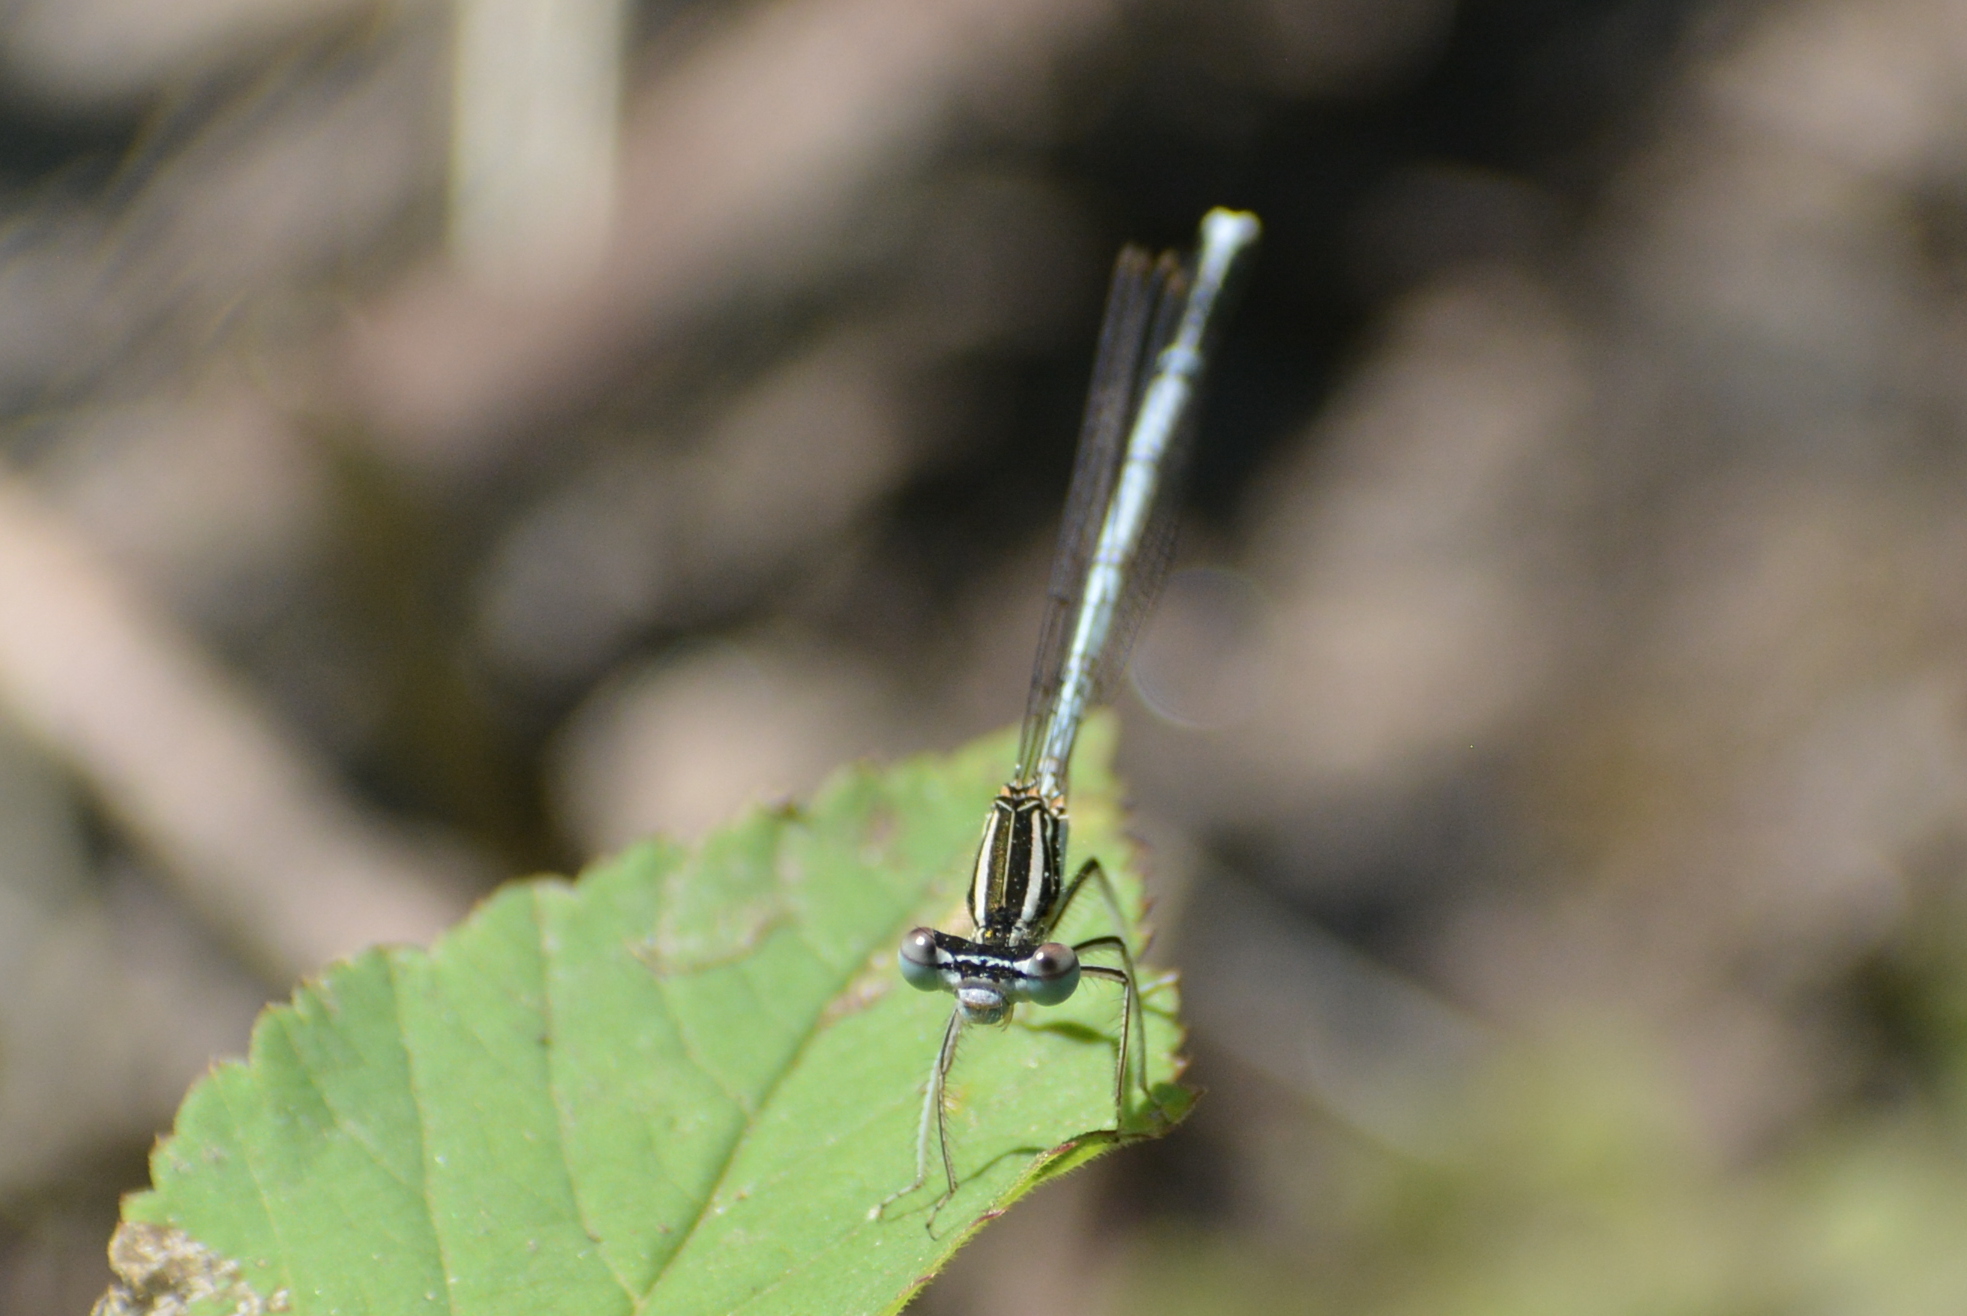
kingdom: Animalia
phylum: Arthropoda
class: Insecta
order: Odonata
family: Platycnemididae
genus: Platycnemis
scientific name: Platycnemis pennipes
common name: White-legged damselfly
